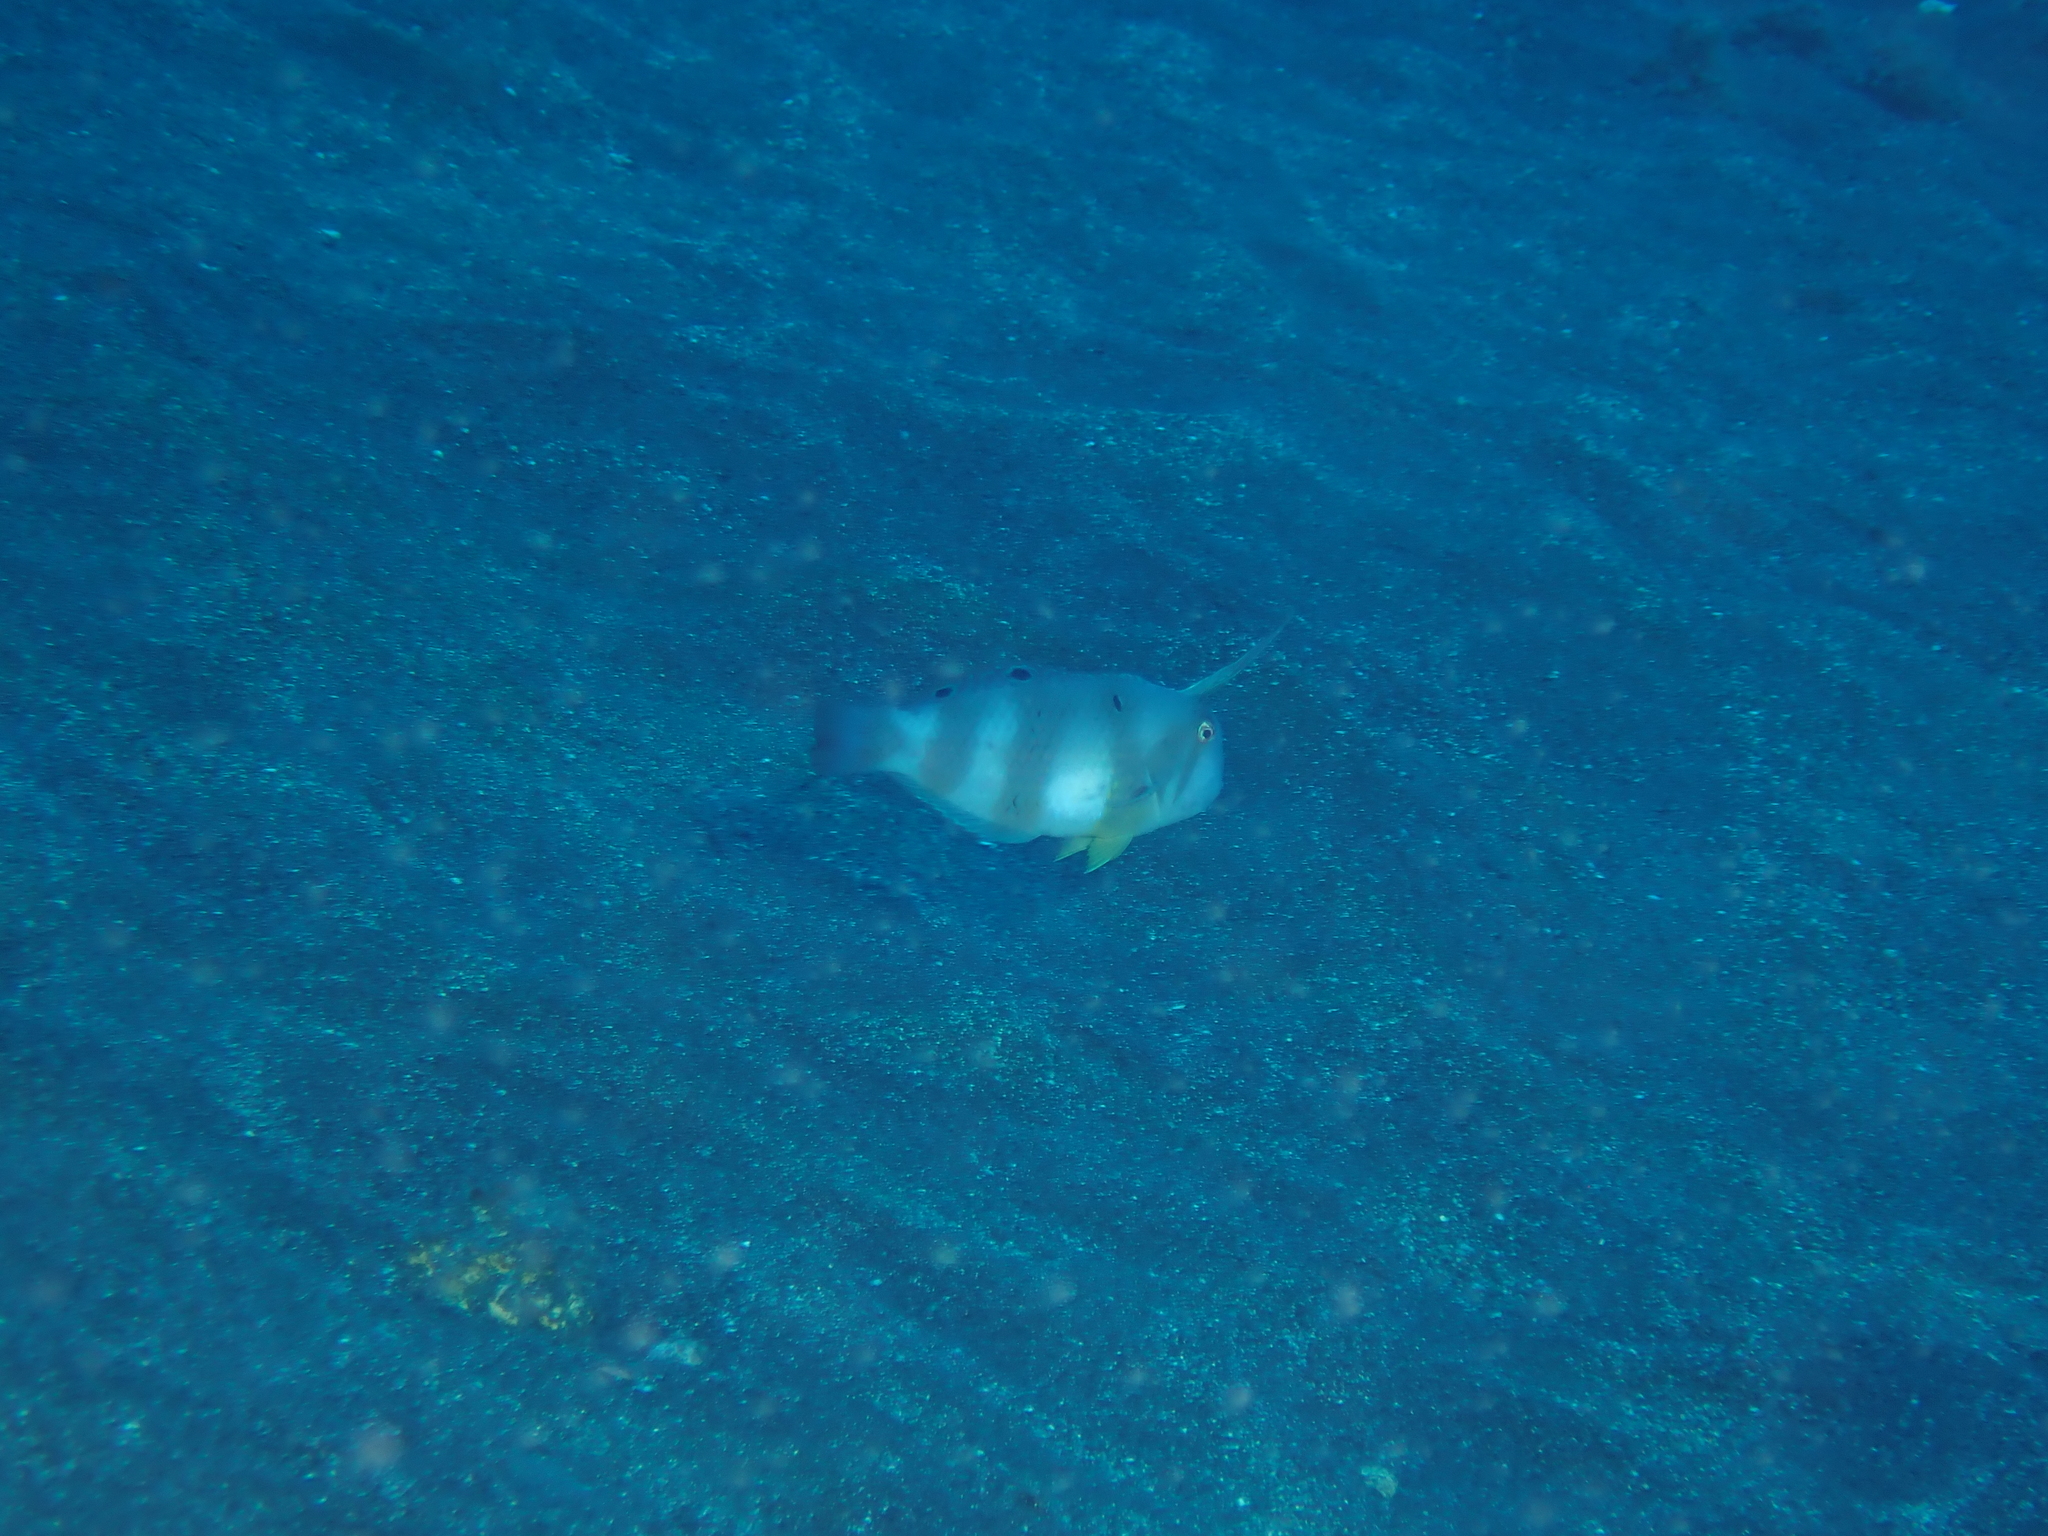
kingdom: Animalia
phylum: Chordata
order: Perciformes
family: Labridae
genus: Iniistius
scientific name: Iniistius pavo
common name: Peacock wrasse
